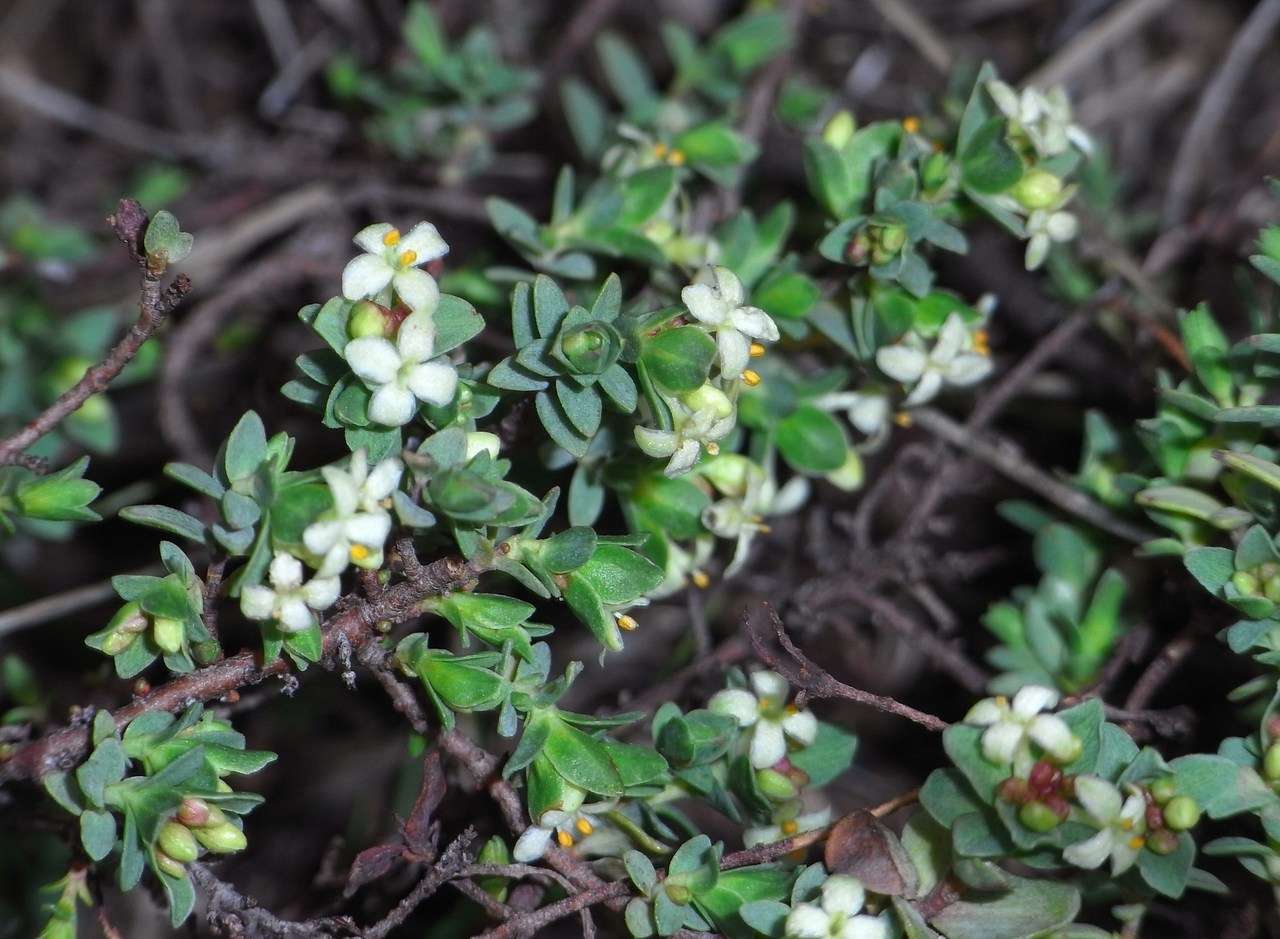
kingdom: Plantae
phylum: Tracheophyta
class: Magnoliopsida
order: Malvales
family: Thymelaeaceae
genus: Pimelea
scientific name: Pimelea spinescens
